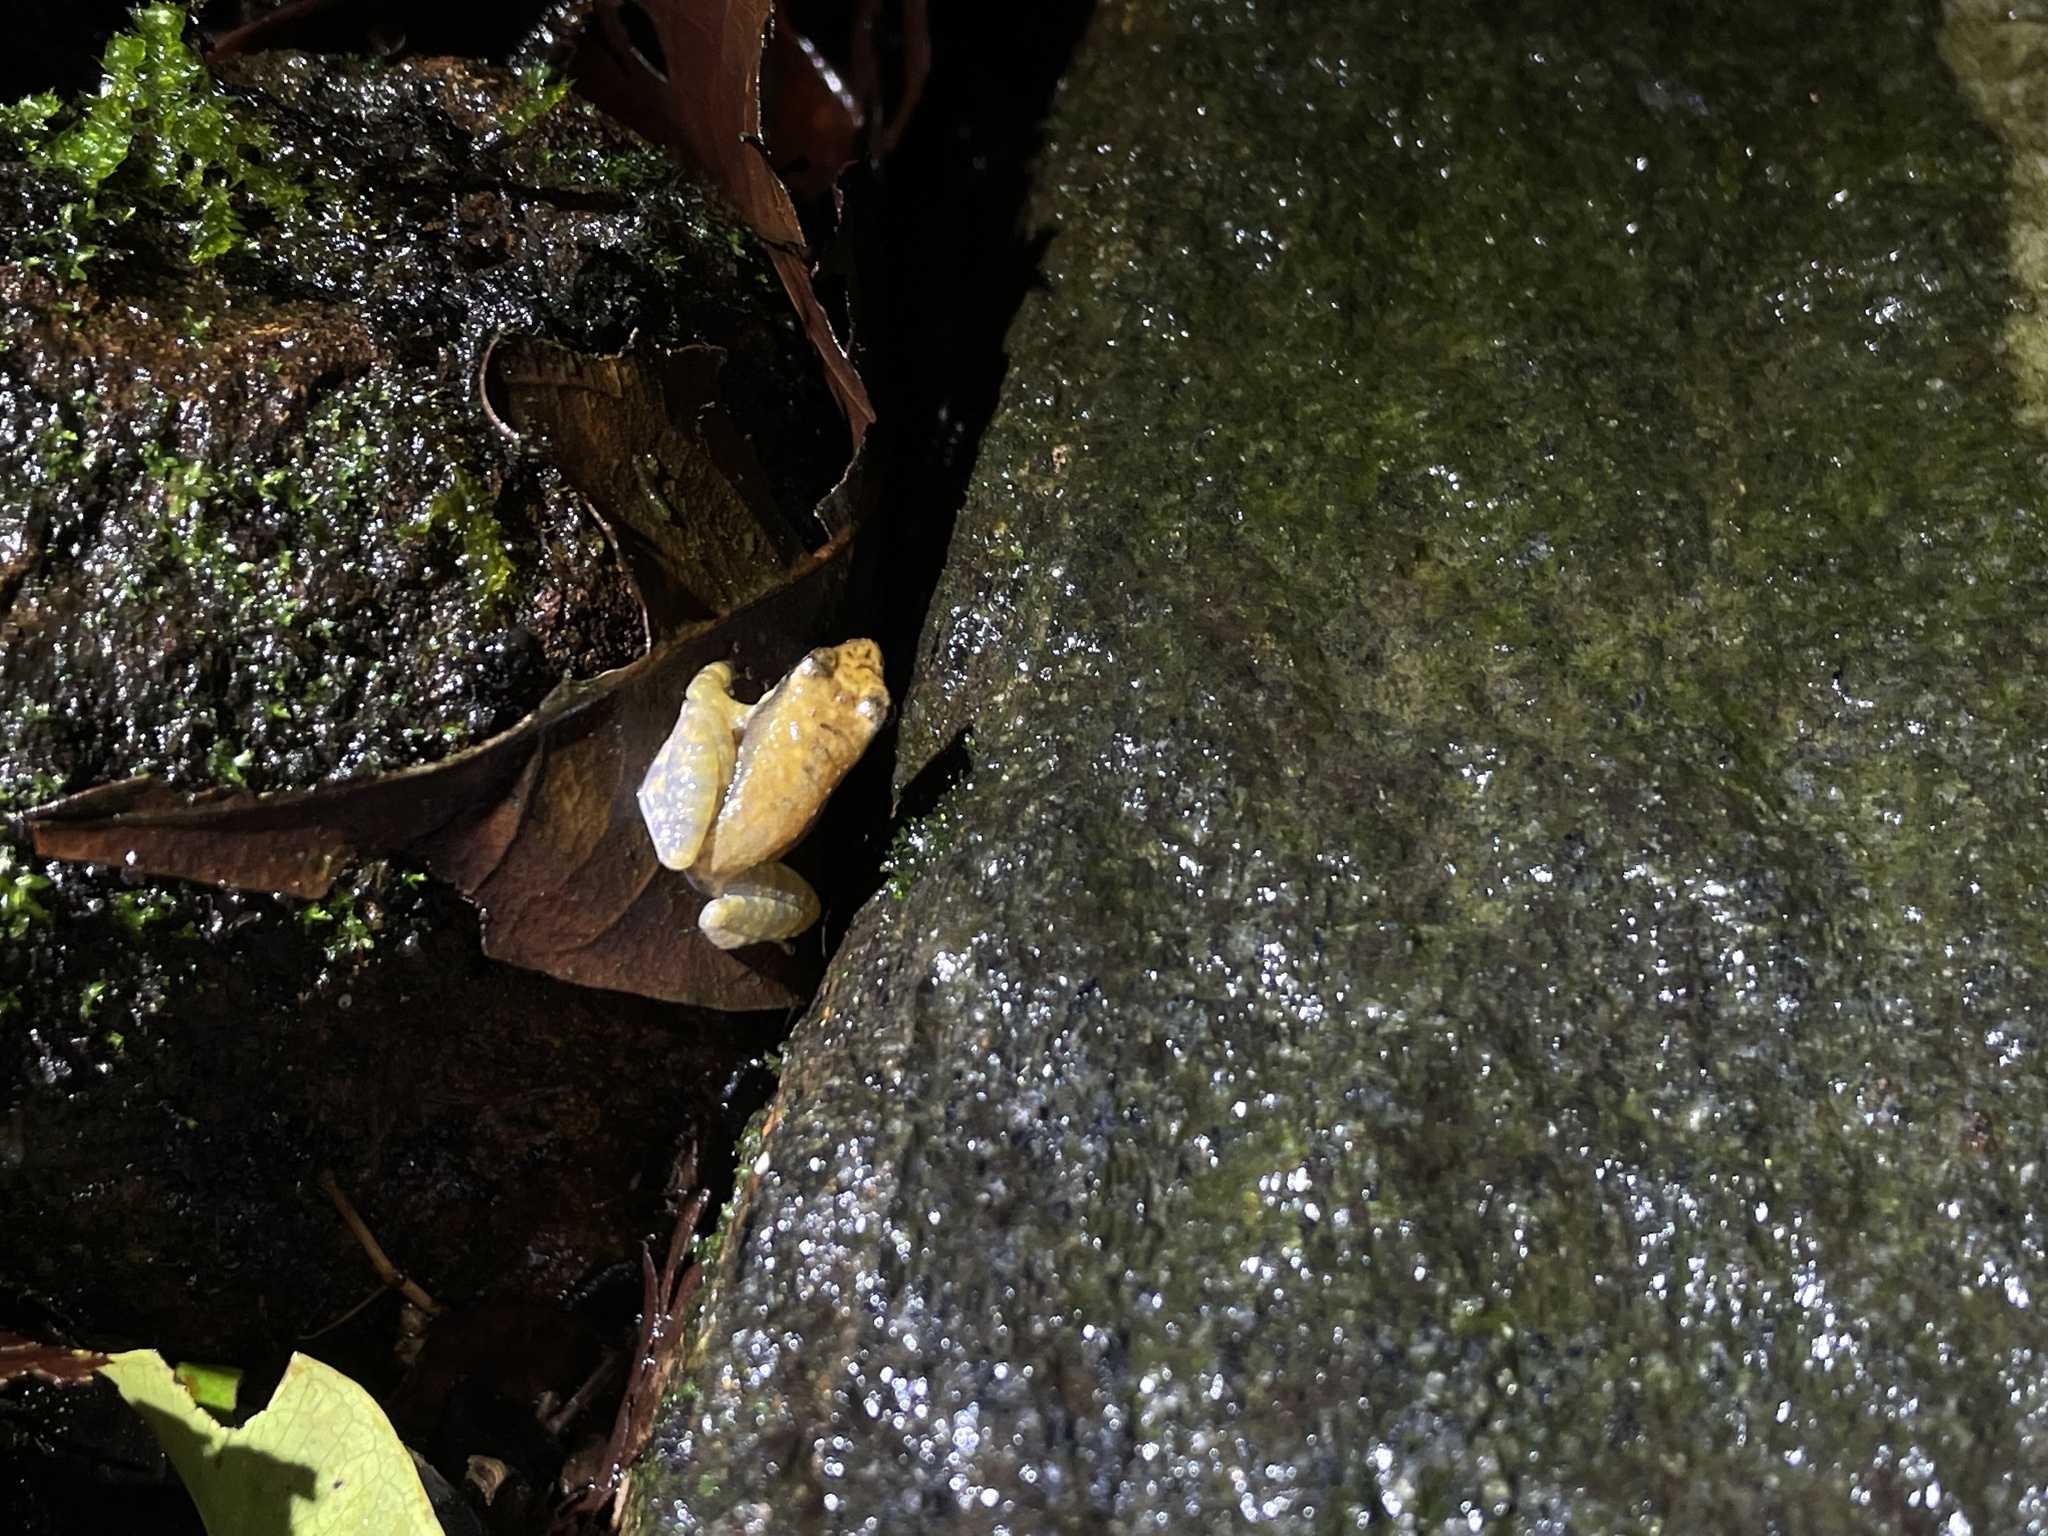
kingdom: Animalia
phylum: Chordata
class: Amphibia
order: Anura
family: Micrixalidae
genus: Micrixalus
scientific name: Micrixalus elegans
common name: Elegant dancing frog
